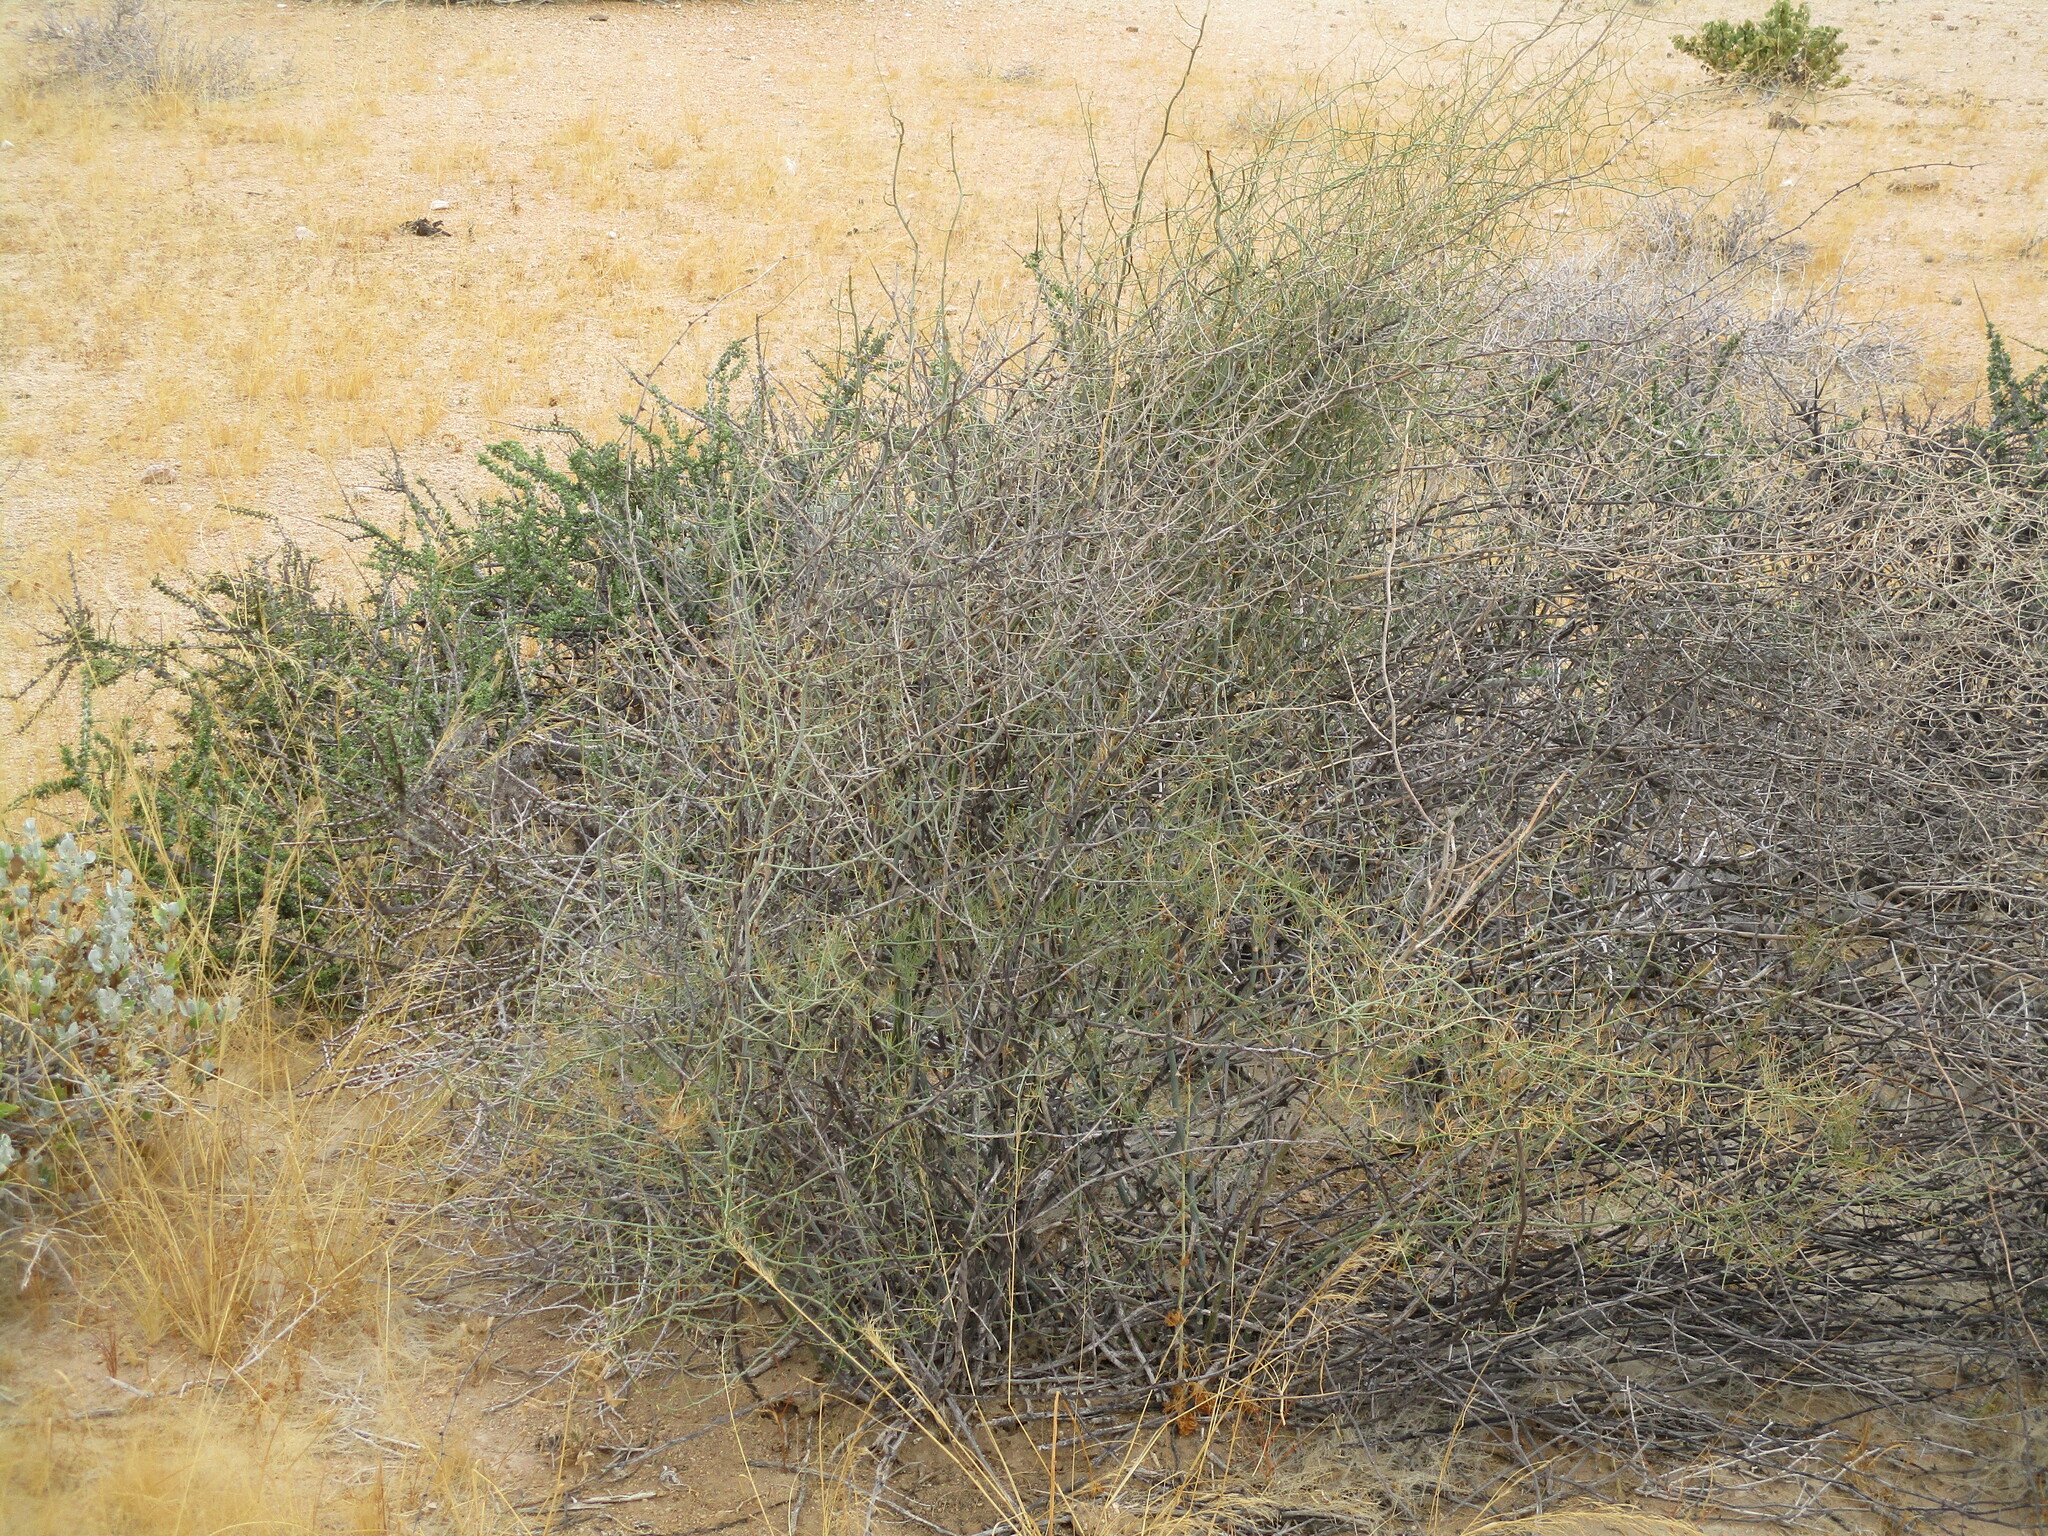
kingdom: Plantae
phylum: Tracheophyta
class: Liliopsida
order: Asparagales
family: Asparagaceae
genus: Asparagus
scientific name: Asparagus pearsonii
